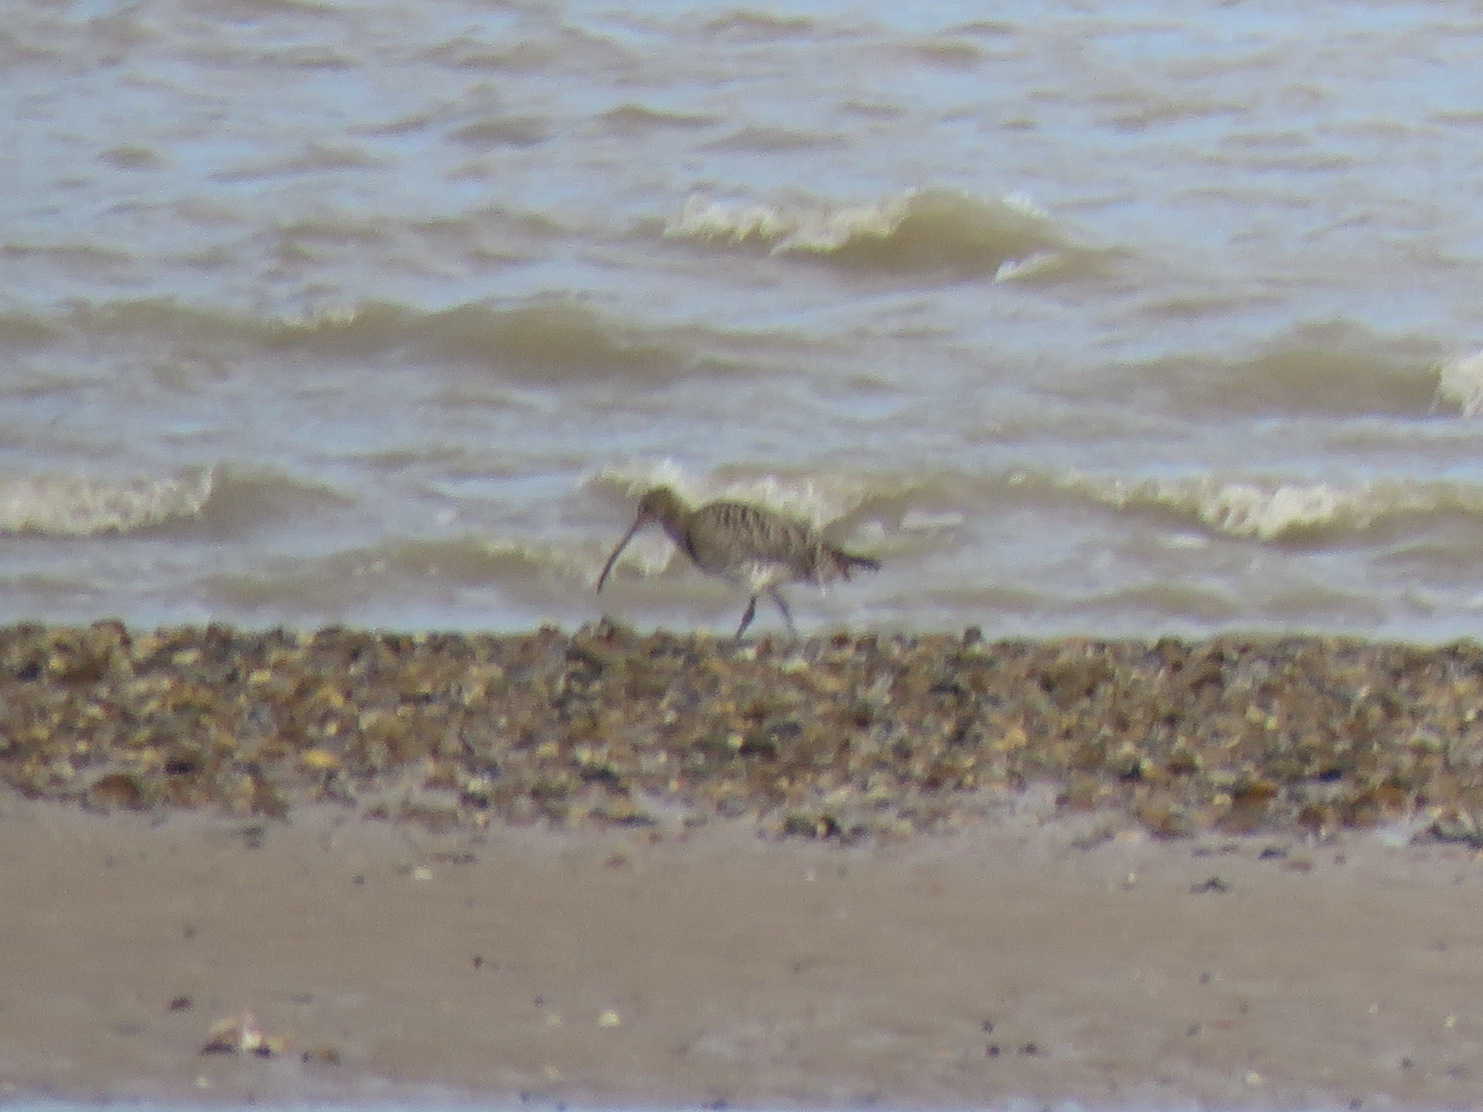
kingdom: Animalia
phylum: Chordata
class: Aves
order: Charadriiformes
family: Scolopacidae
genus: Numenius
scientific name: Numenius arquata
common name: Eurasian curlew
